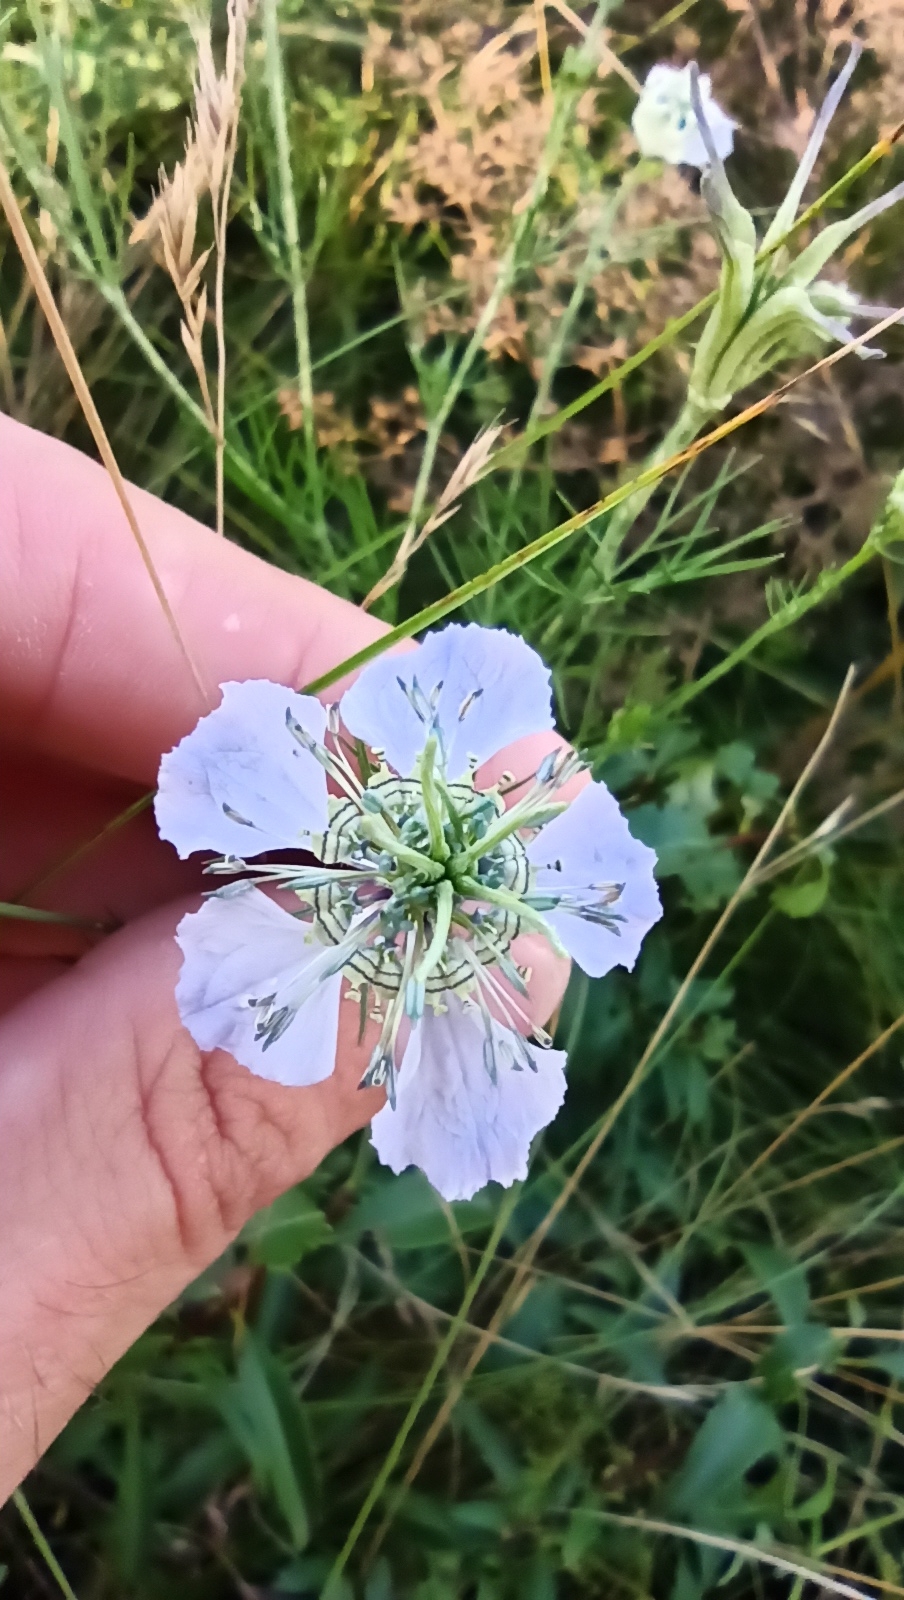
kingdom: Plantae
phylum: Tracheophyta
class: Magnoliopsida
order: Ranunculales
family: Ranunculaceae
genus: Nigella
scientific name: Nigella arvensis
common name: Wild fennel-flower
